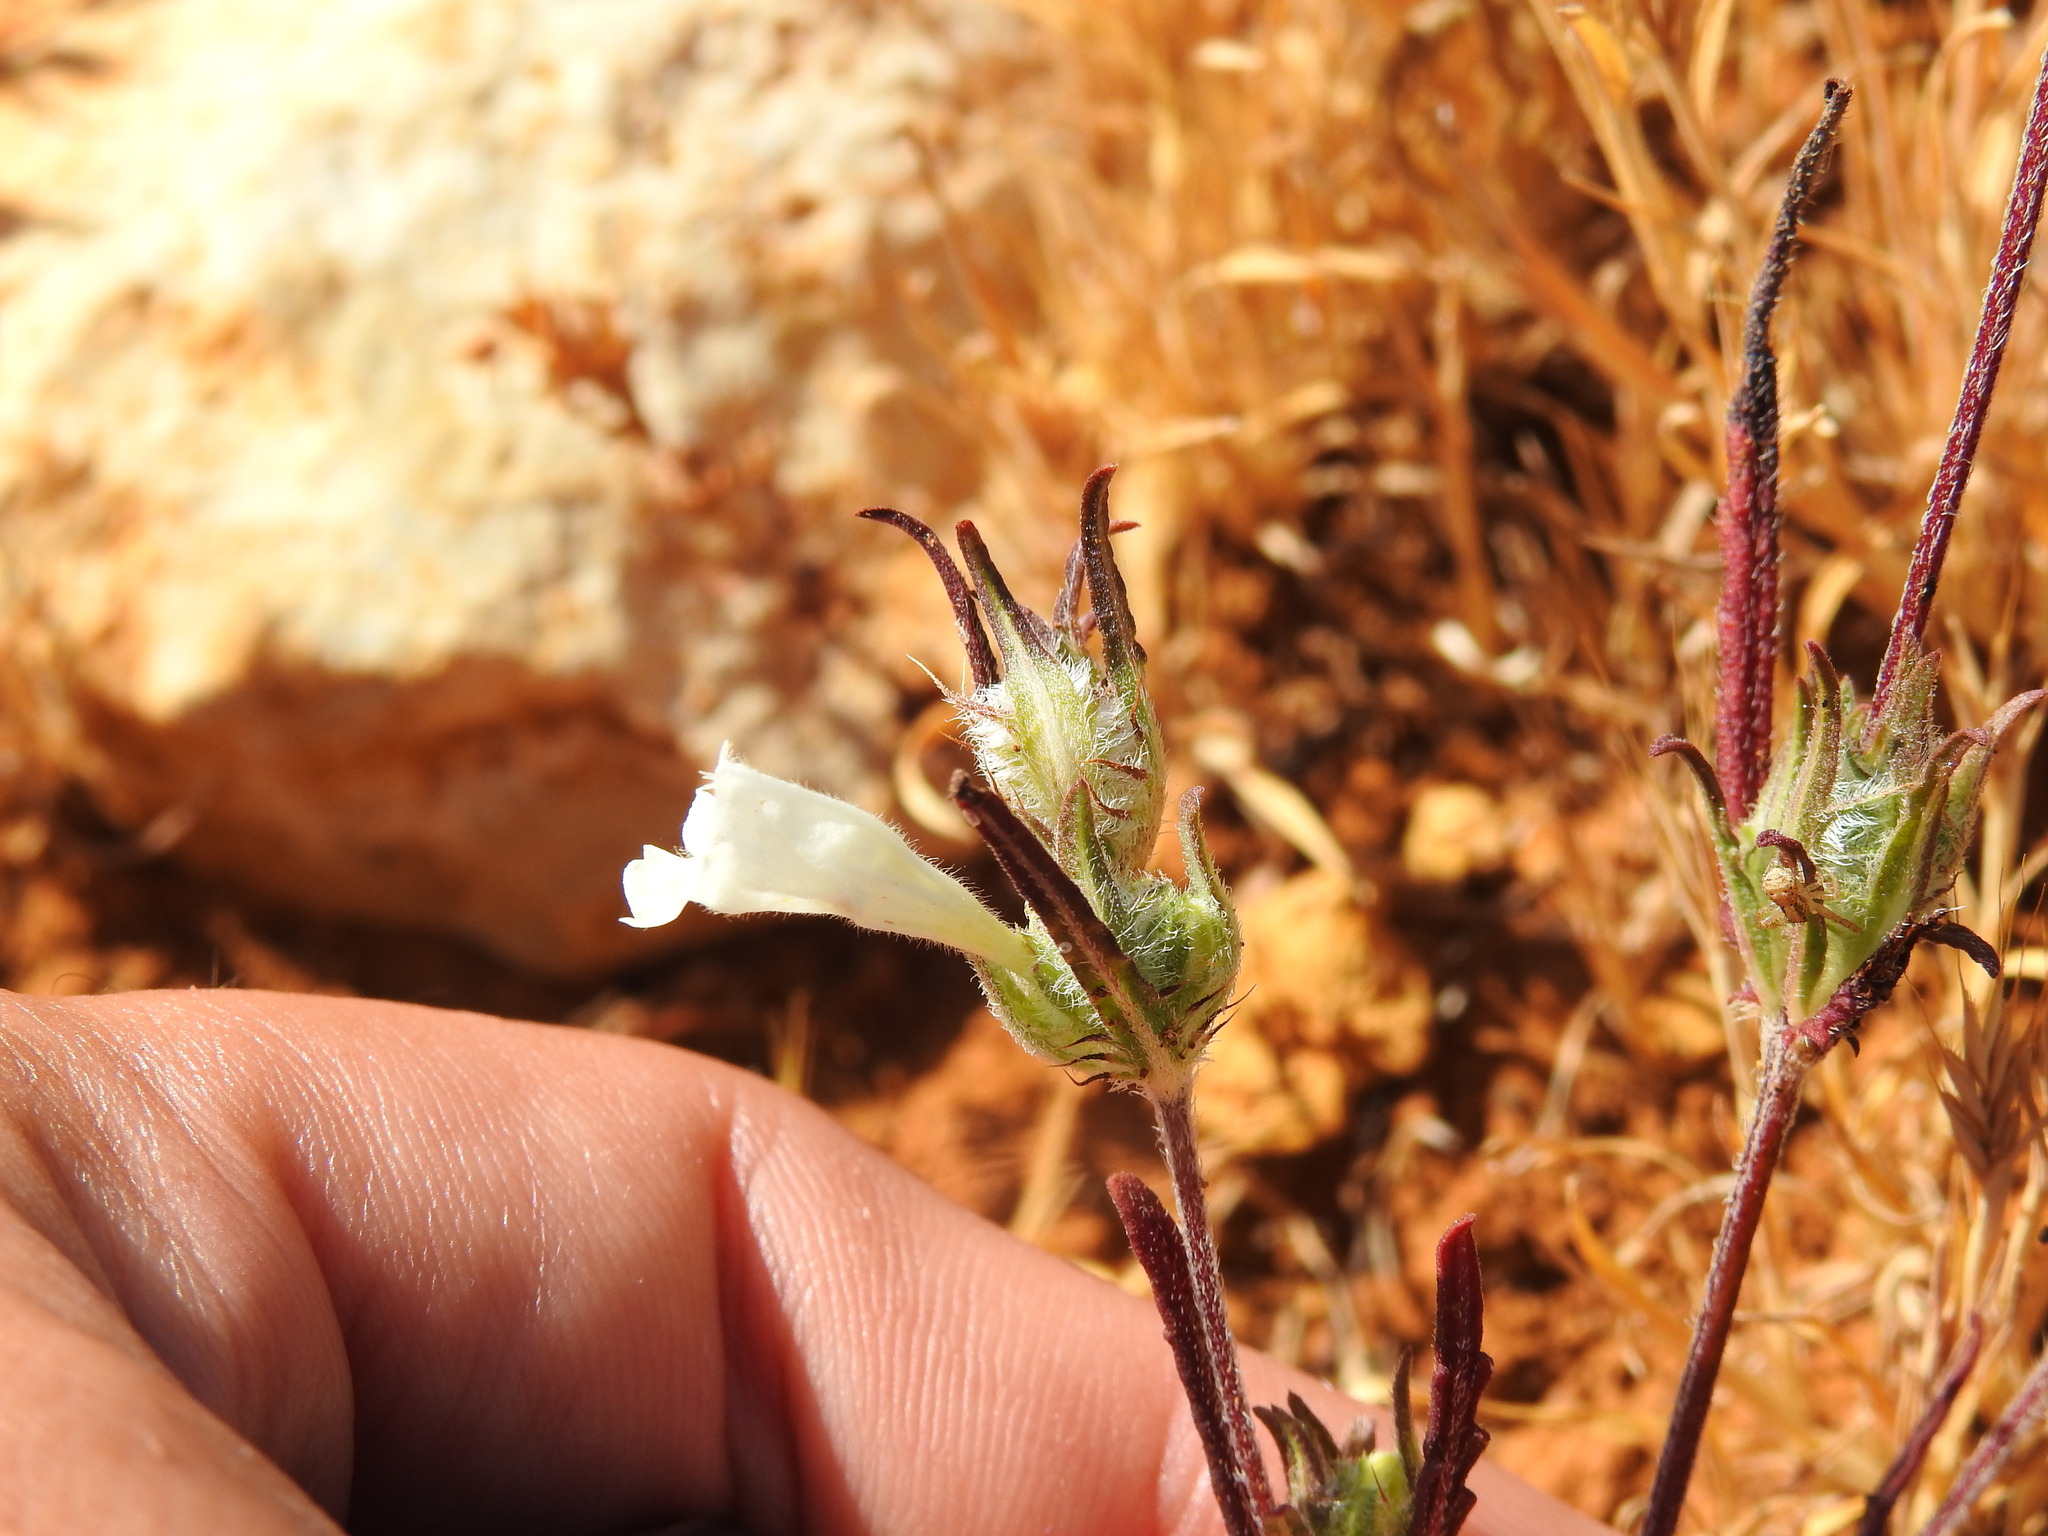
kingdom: Plantae
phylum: Tracheophyta
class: Magnoliopsida
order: Lamiales
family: Lamiaceae
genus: Cleonia
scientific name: Cleonia lusitanica
